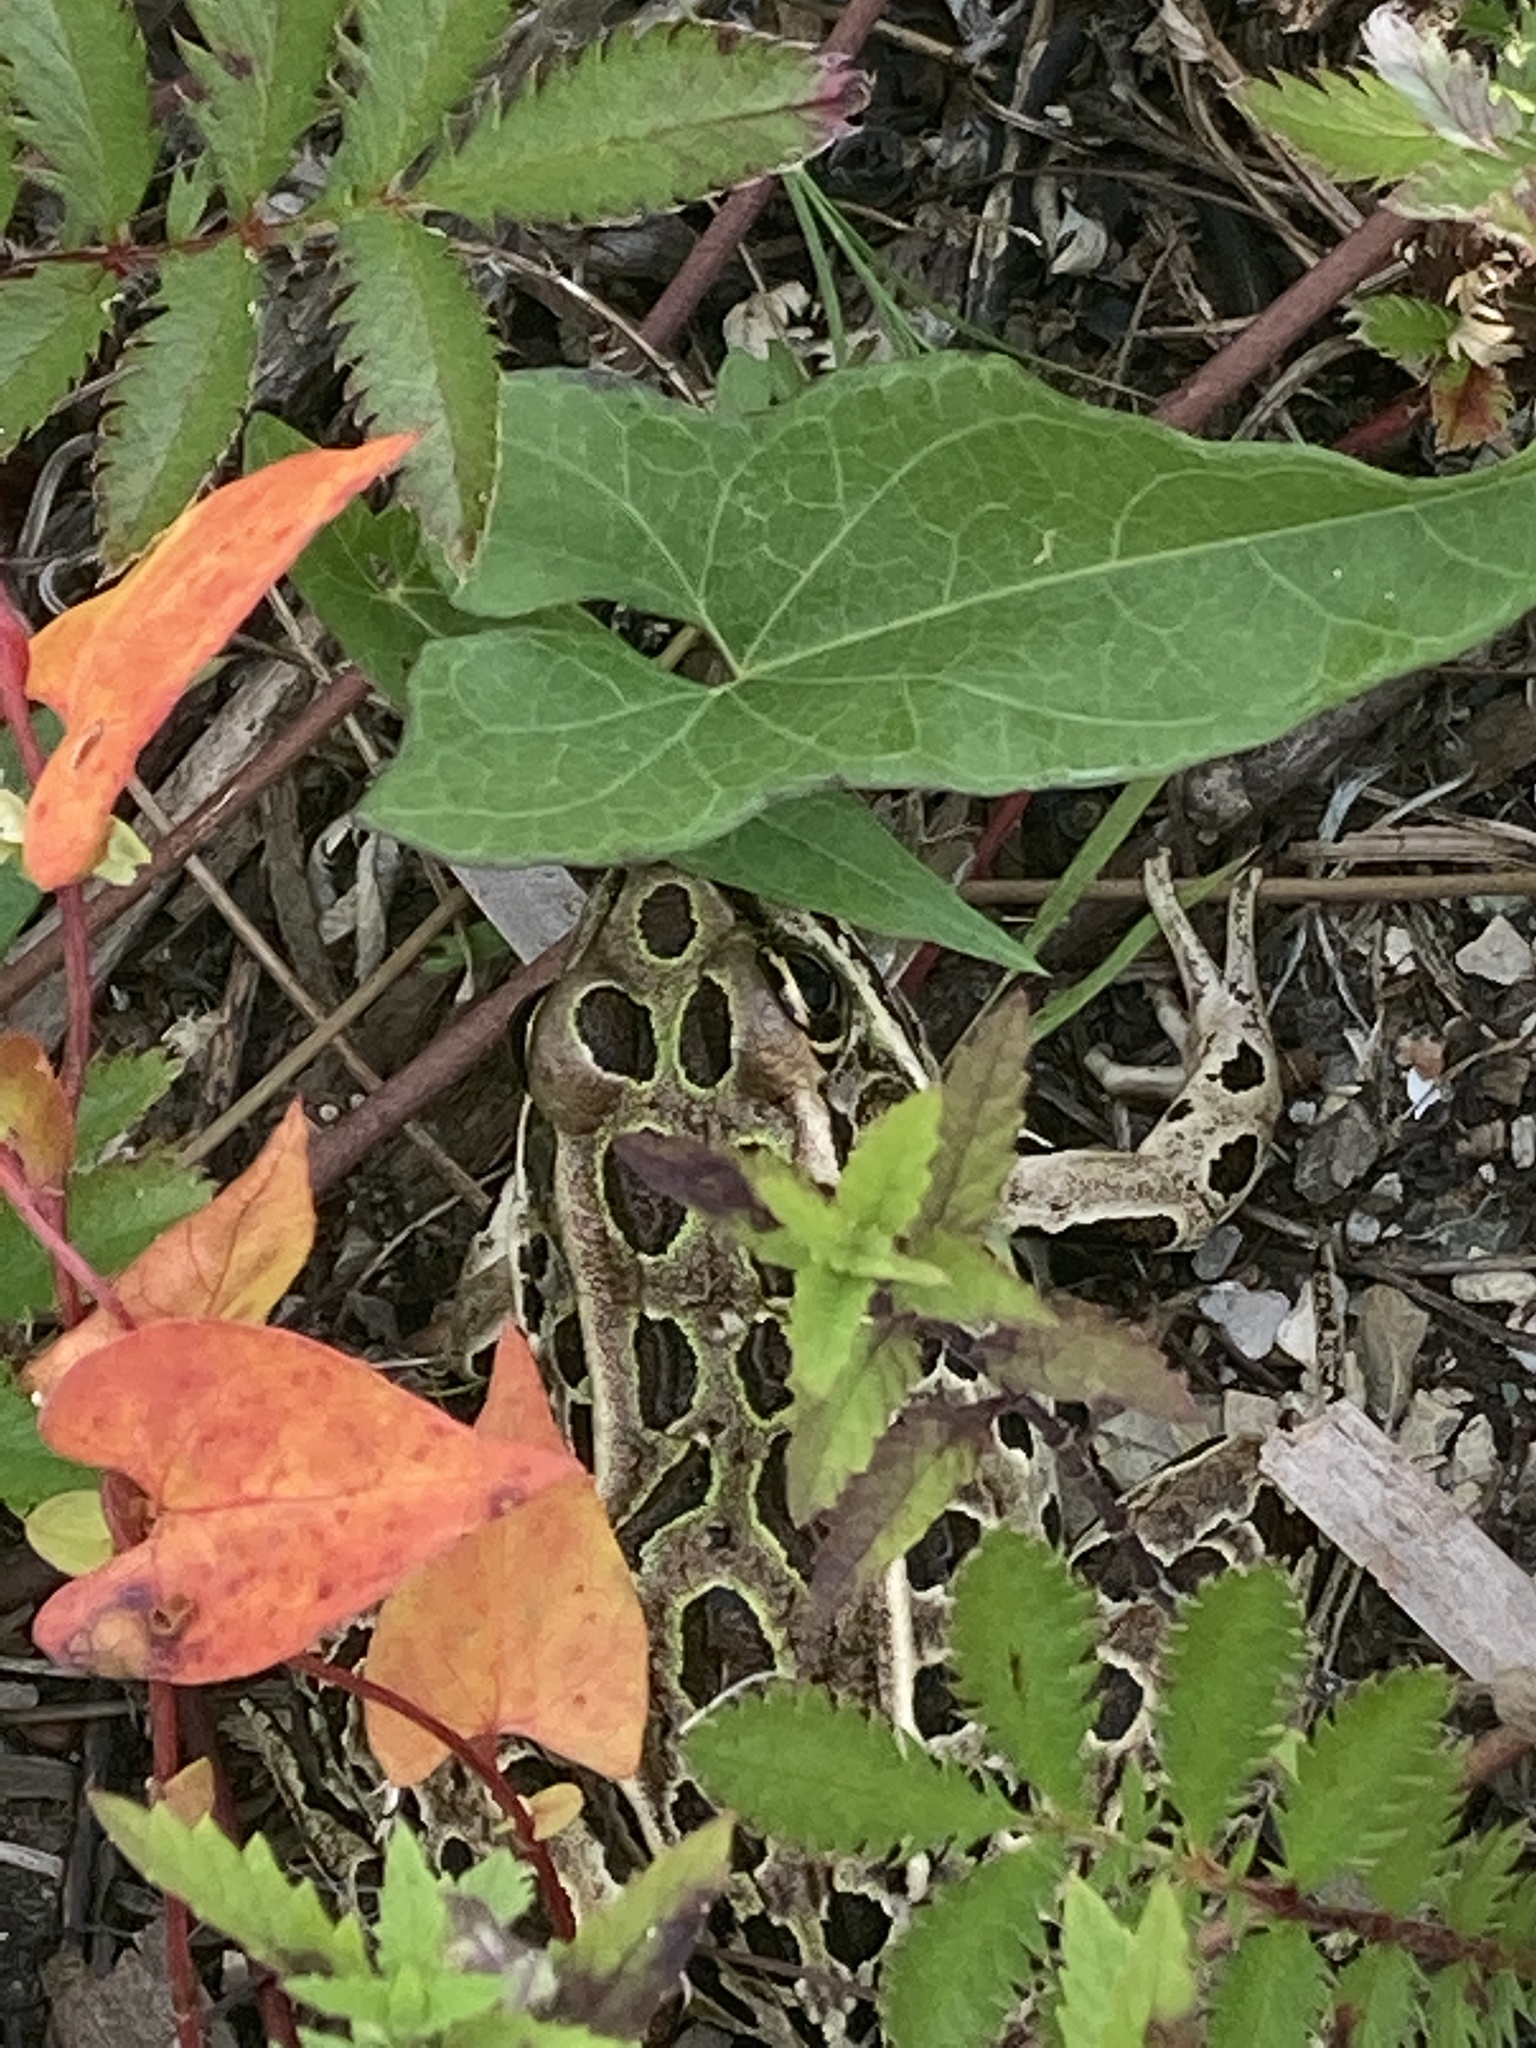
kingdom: Animalia
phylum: Chordata
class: Amphibia
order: Anura
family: Ranidae
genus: Lithobates
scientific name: Lithobates pipiens
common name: Northern leopard frog
